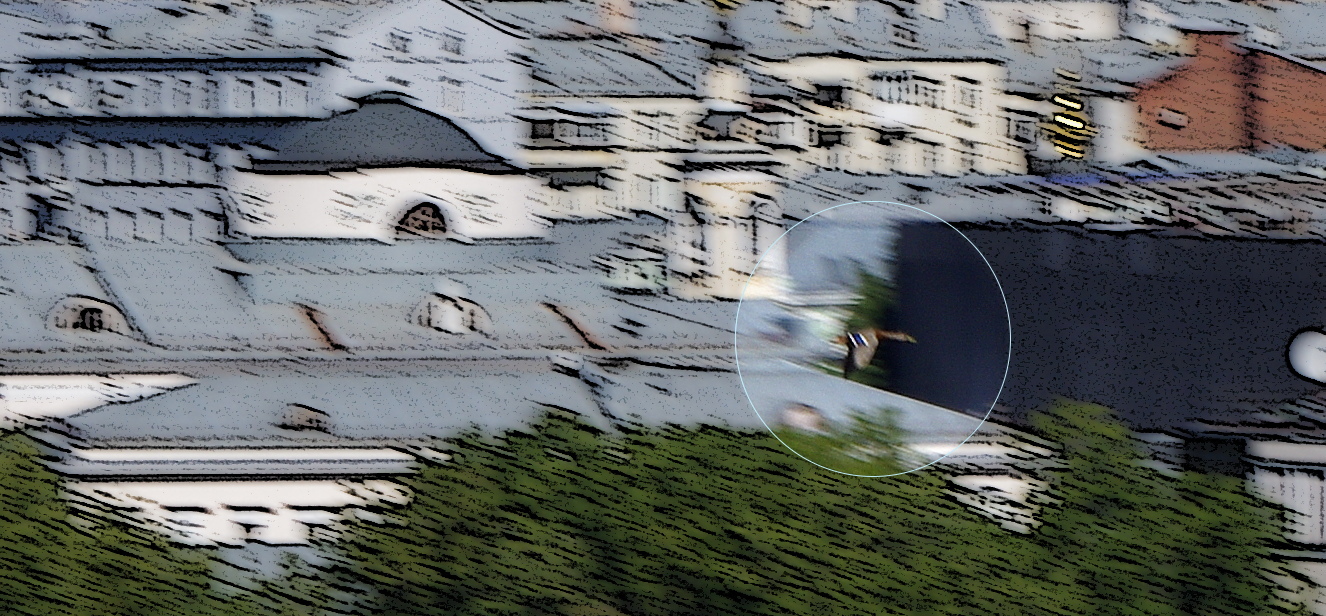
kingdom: Animalia
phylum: Chordata
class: Aves
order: Anseriformes
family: Anatidae
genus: Anas
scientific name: Anas platyrhynchos
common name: Mallard
